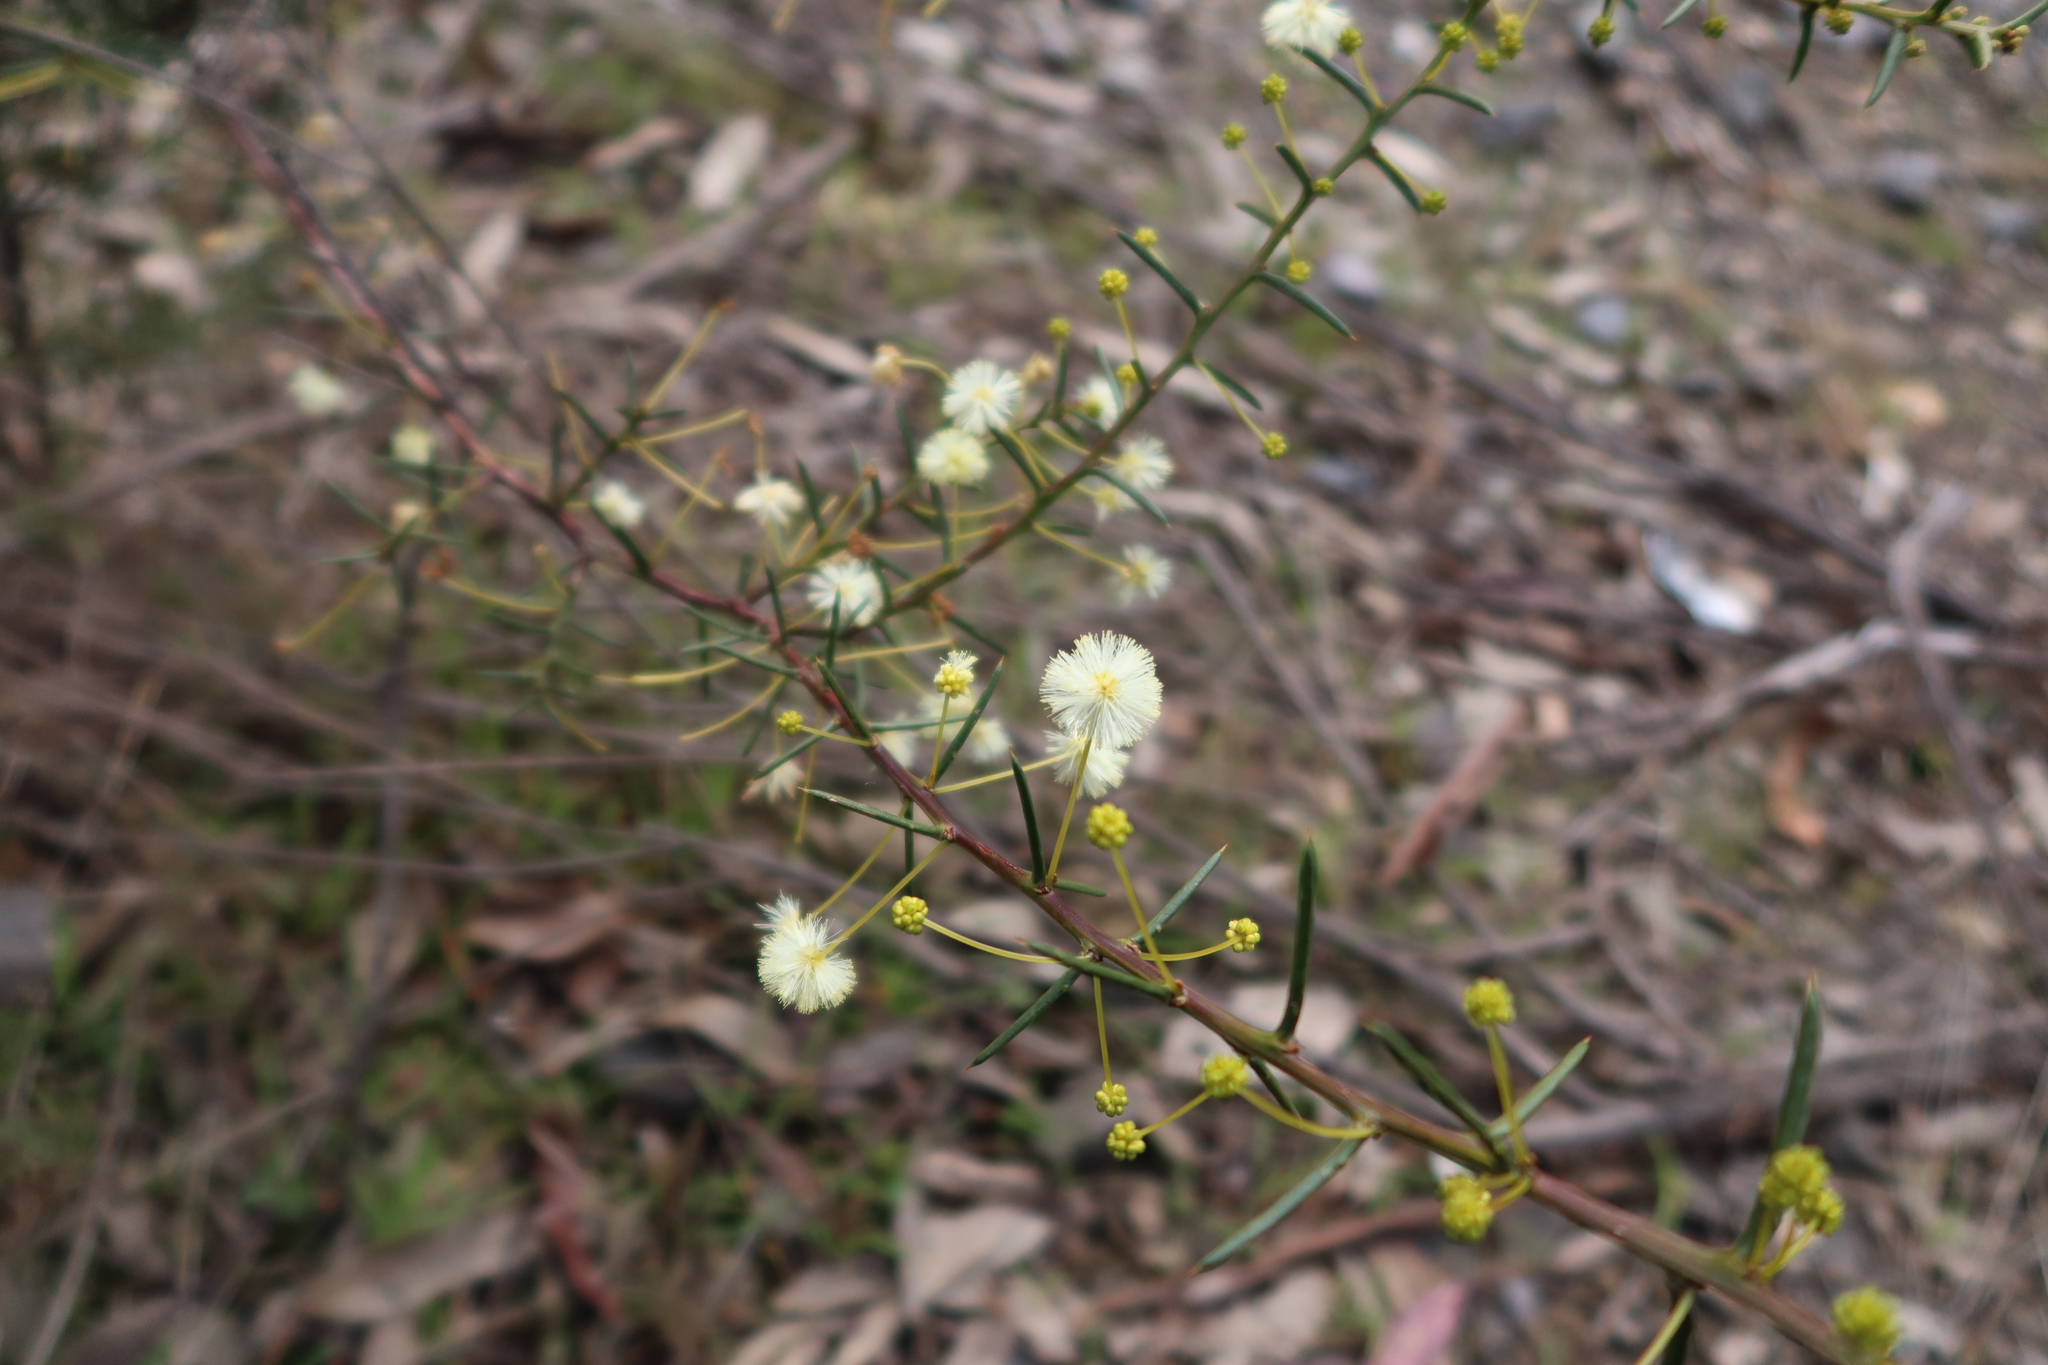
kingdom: Plantae
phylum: Tracheophyta
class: Magnoliopsida
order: Fabales
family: Fabaceae
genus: Acacia
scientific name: Acacia genistifolia
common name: Early wattle
